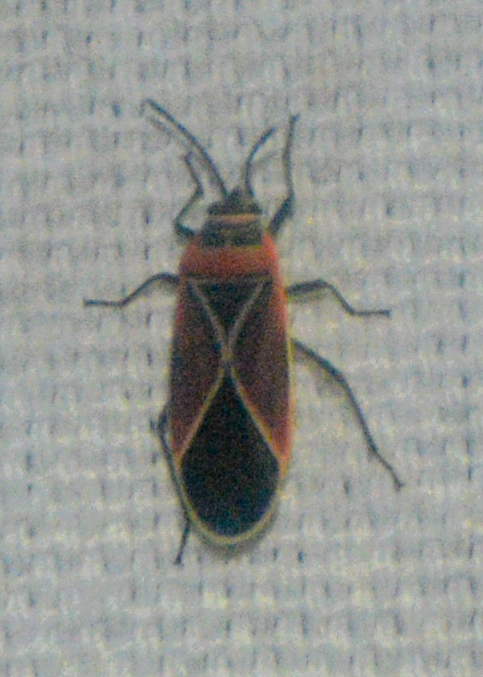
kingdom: Animalia
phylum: Arthropoda
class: Insecta
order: Hemiptera
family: Lygaeidae
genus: Neacoryphus
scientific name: Neacoryphus bicrucis
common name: Lygaeid bug
